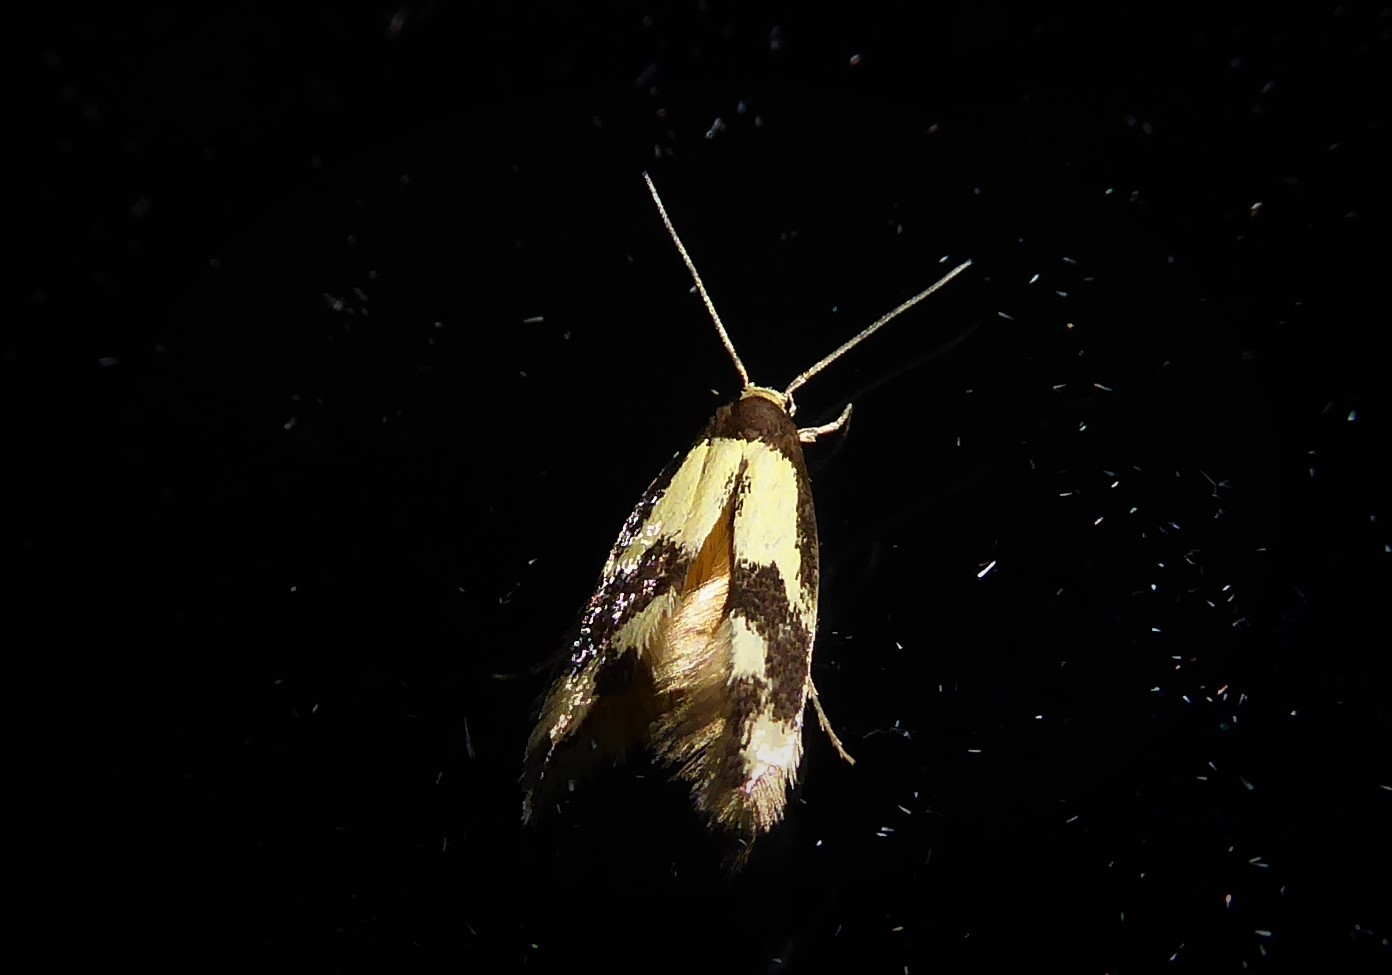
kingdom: Animalia
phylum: Arthropoda
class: Insecta
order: Lepidoptera
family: Tineidae
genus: Opogona
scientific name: Opogona comptella
